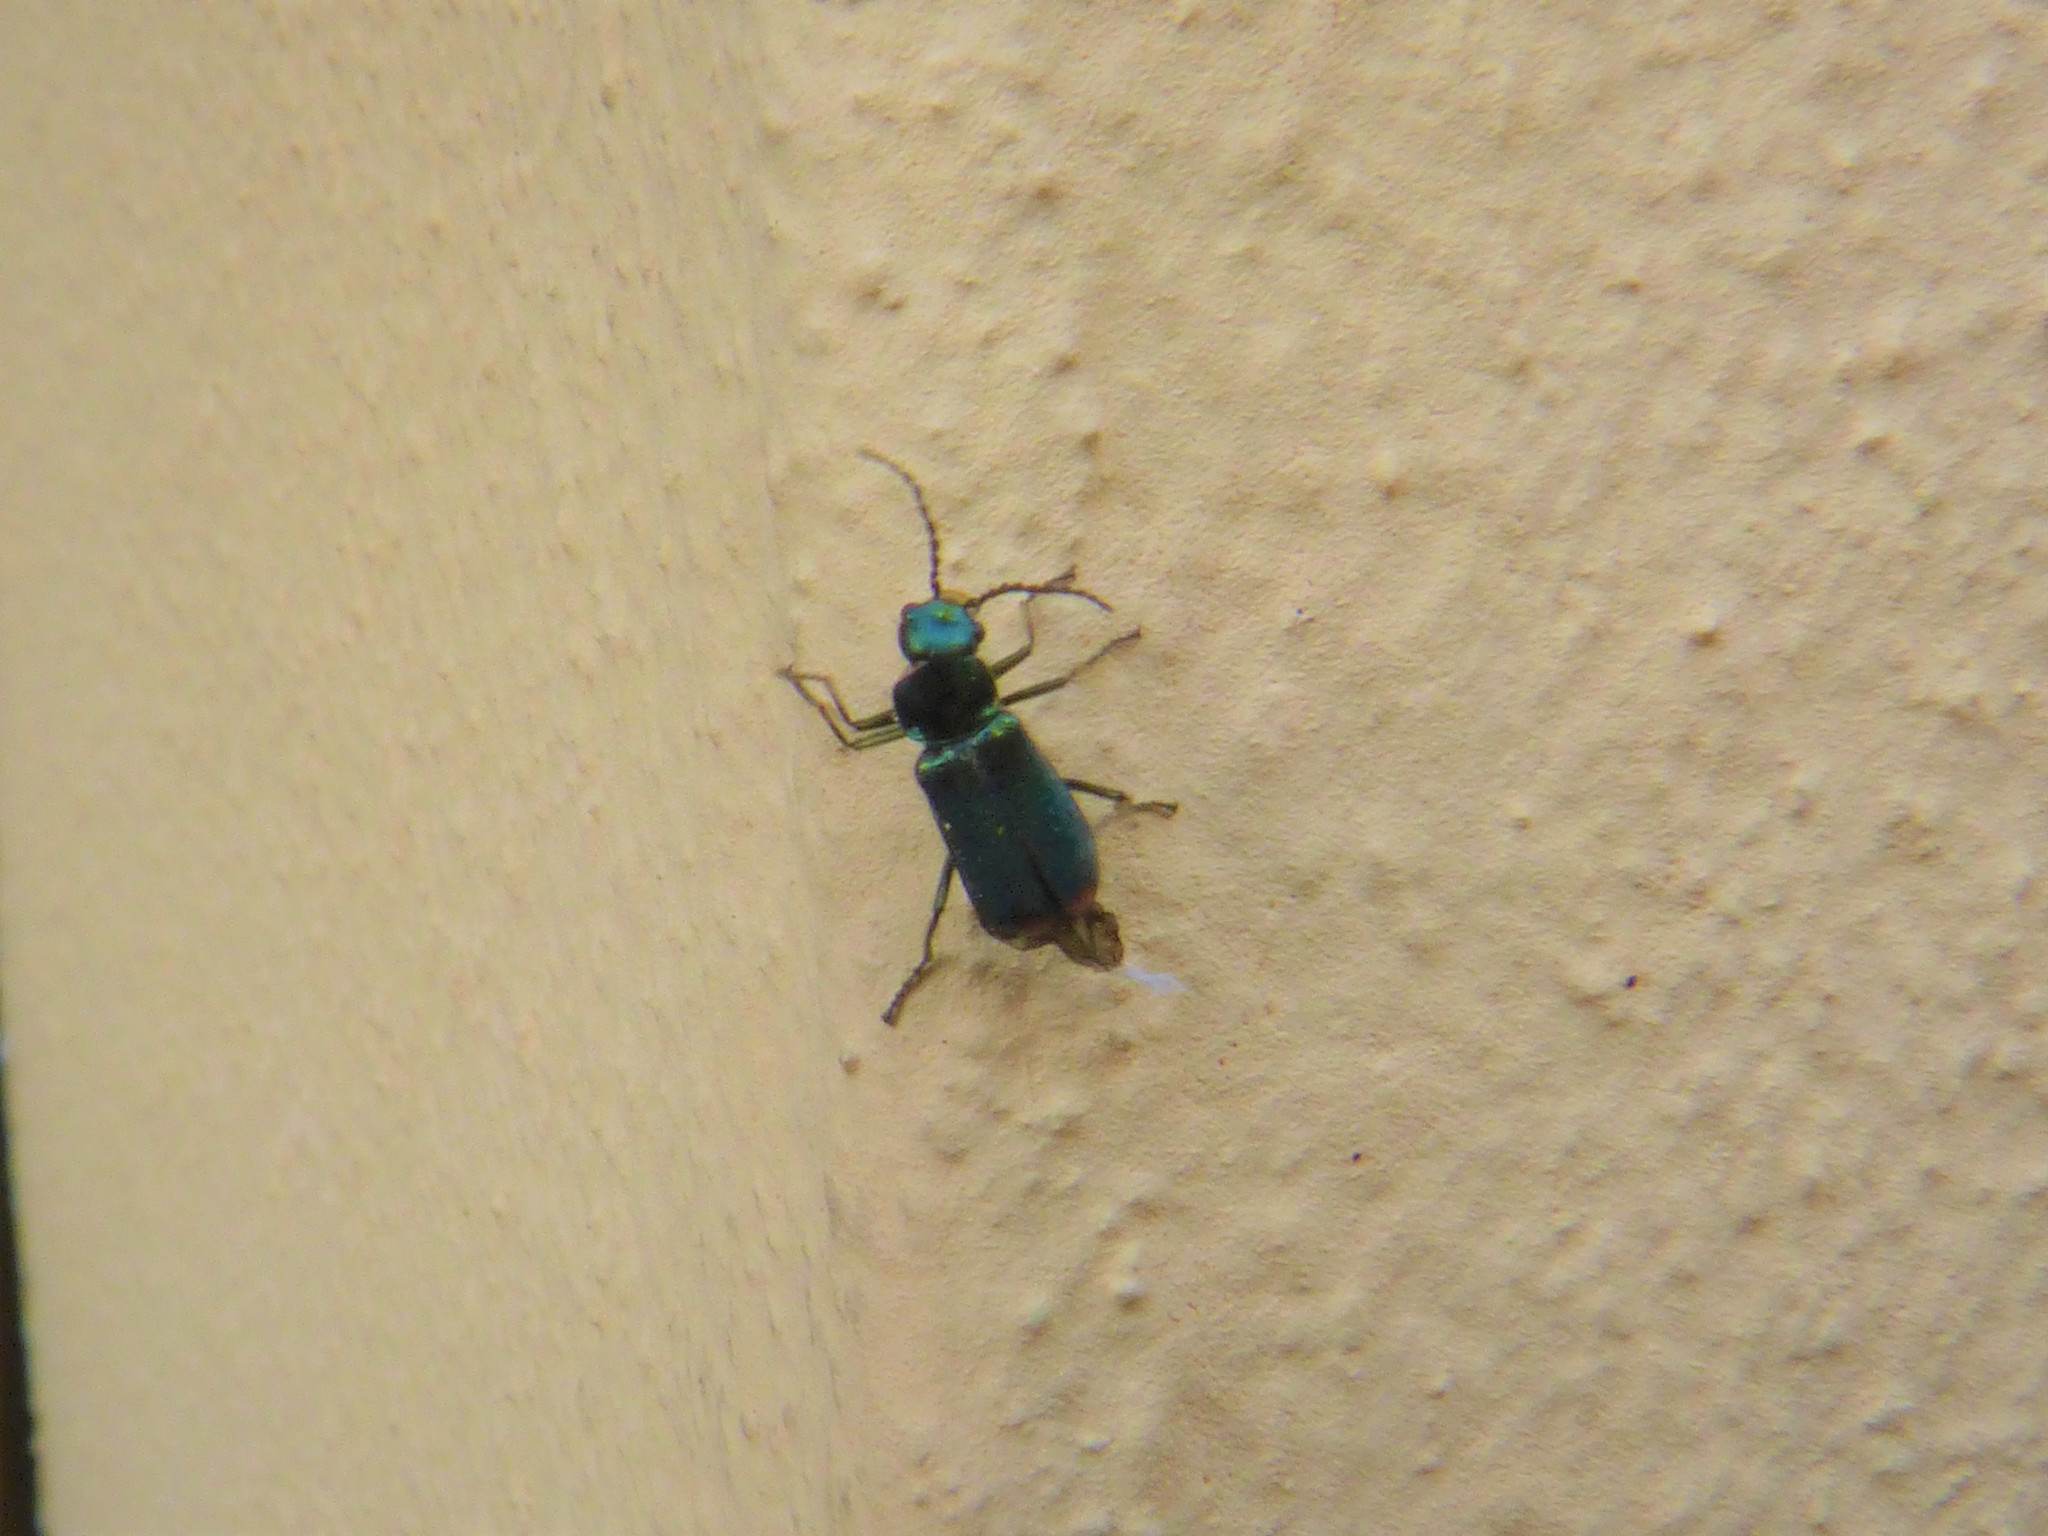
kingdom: Animalia
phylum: Arthropoda
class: Insecta
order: Coleoptera
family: Melyridae
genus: Malachius
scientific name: Malachius bipustulatus
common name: Malachite beetle
